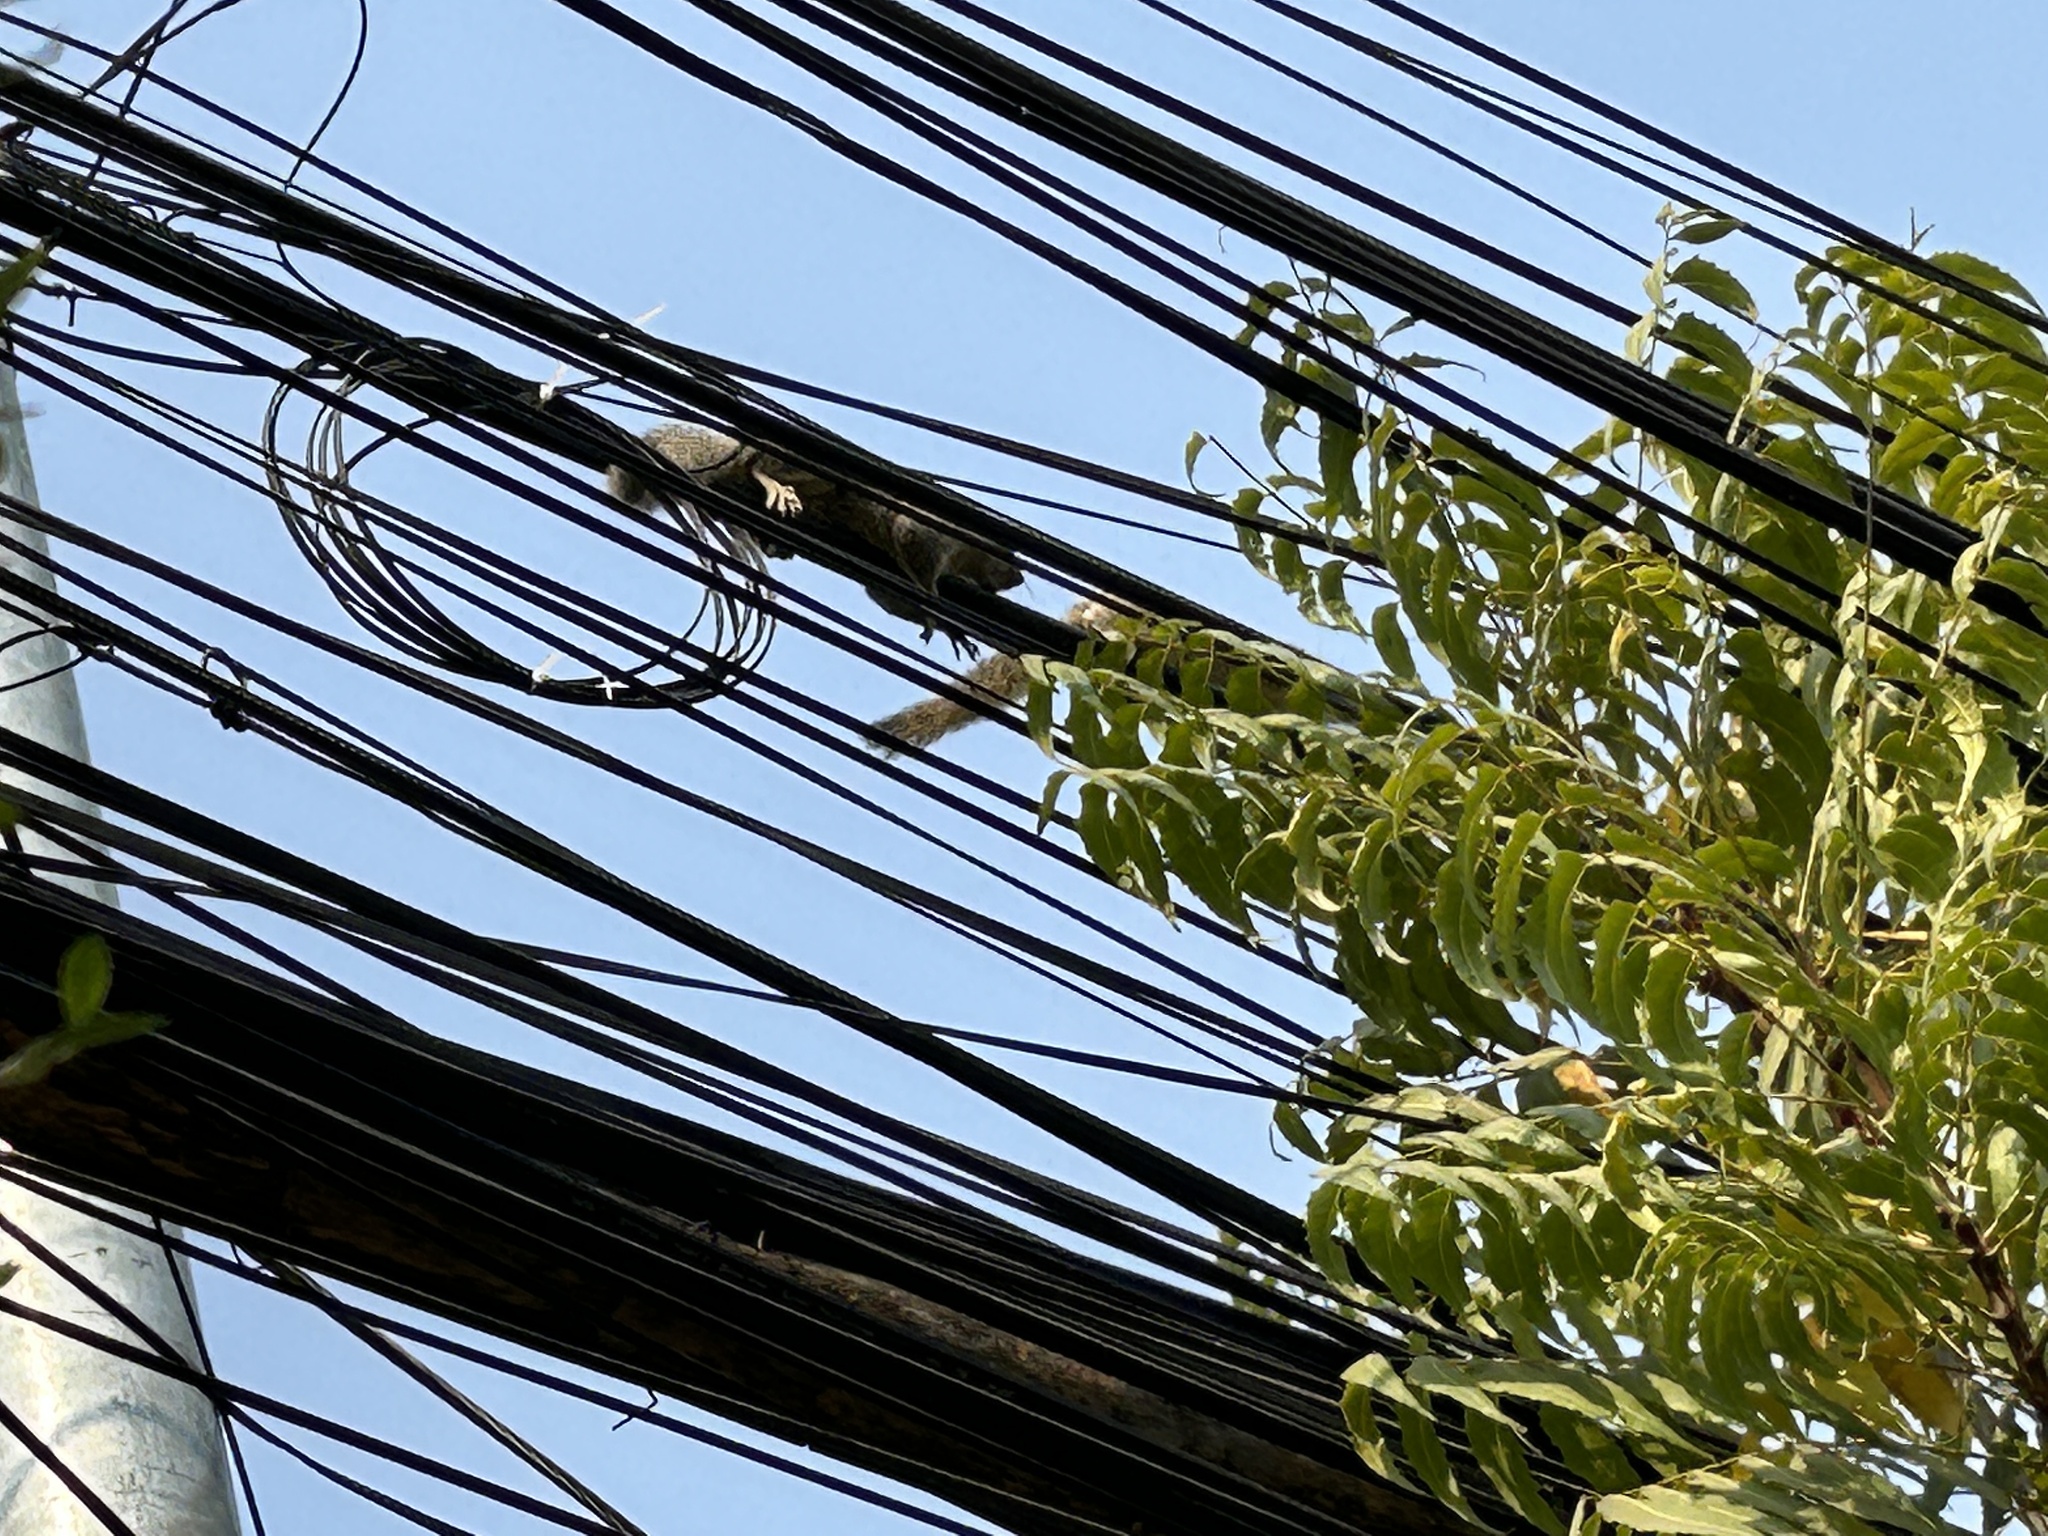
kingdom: Animalia
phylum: Chordata
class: Mammalia
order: Rodentia
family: Sciuridae
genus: Callosciurus
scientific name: Callosciurus pygerythrus
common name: Irrawaddy squirrel
